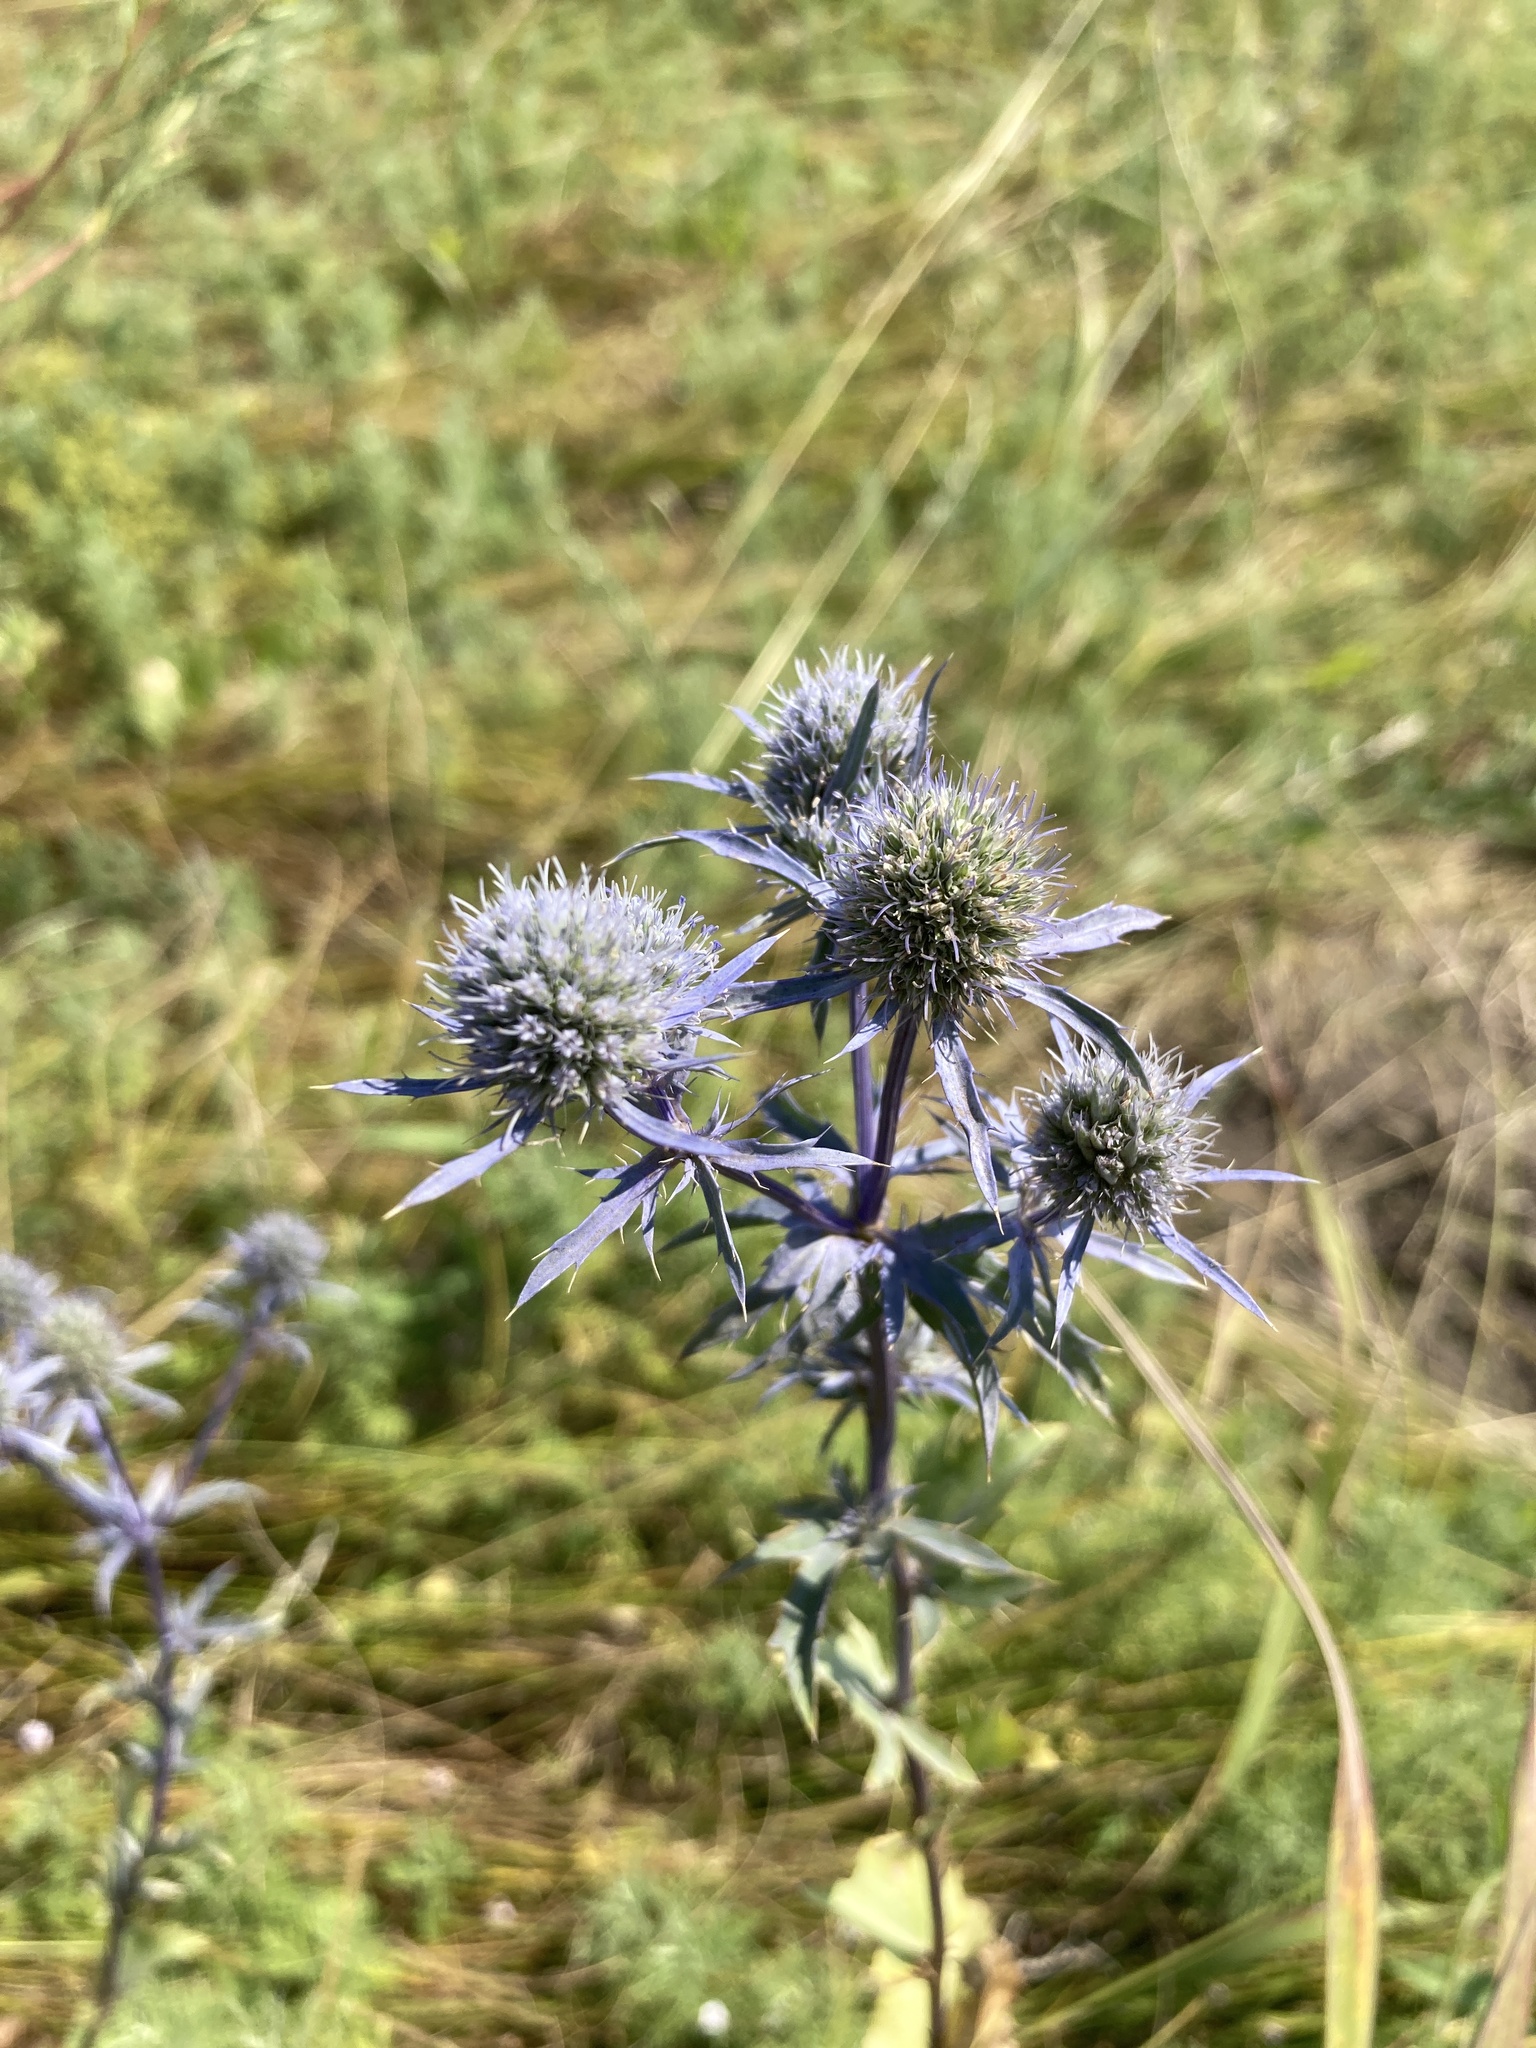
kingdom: Plantae
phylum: Tracheophyta
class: Magnoliopsida
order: Apiales
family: Apiaceae
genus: Eryngium
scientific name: Eryngium planum
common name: Blue eryngo
